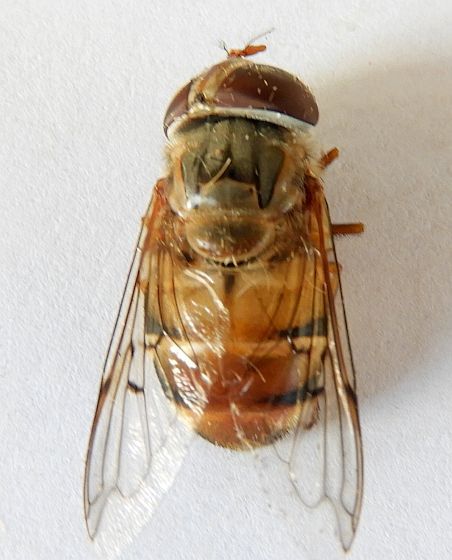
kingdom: Animalia
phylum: Arthropoda
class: Insecta
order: Diptera
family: Syrphidae
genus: Copestylum
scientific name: Copestylum isabellina
